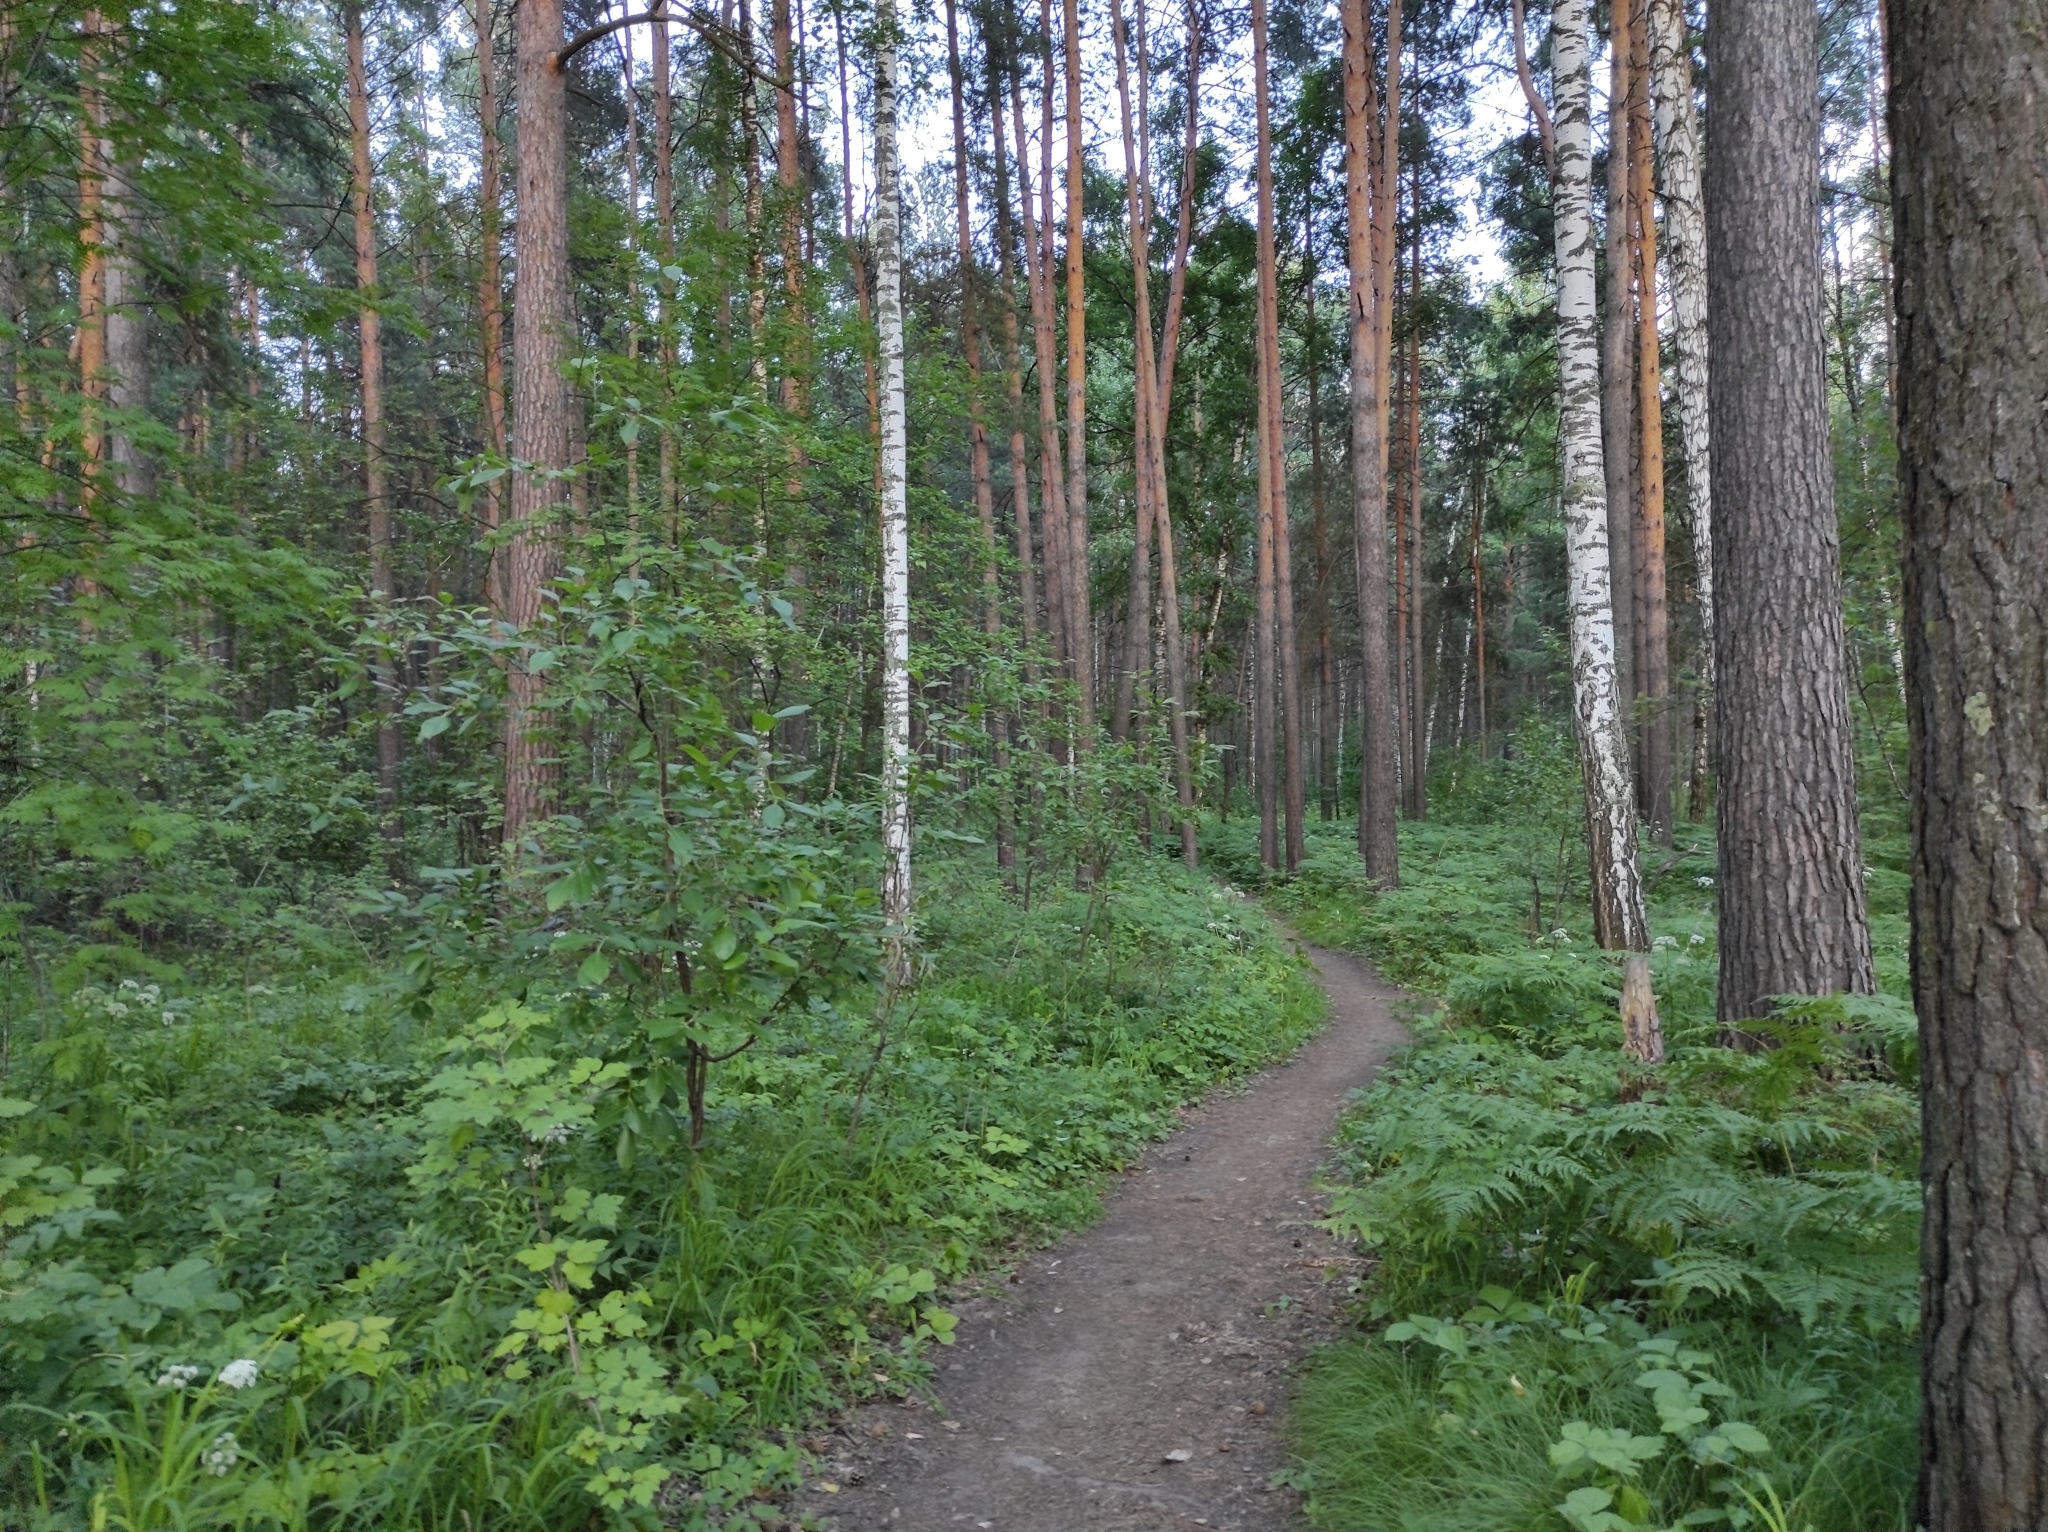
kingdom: Plantae
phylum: Tracheophyta
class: Magnoliopsida
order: Fagales
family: Betulaceae
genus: Betula
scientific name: Betula pendula
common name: Silver birch
